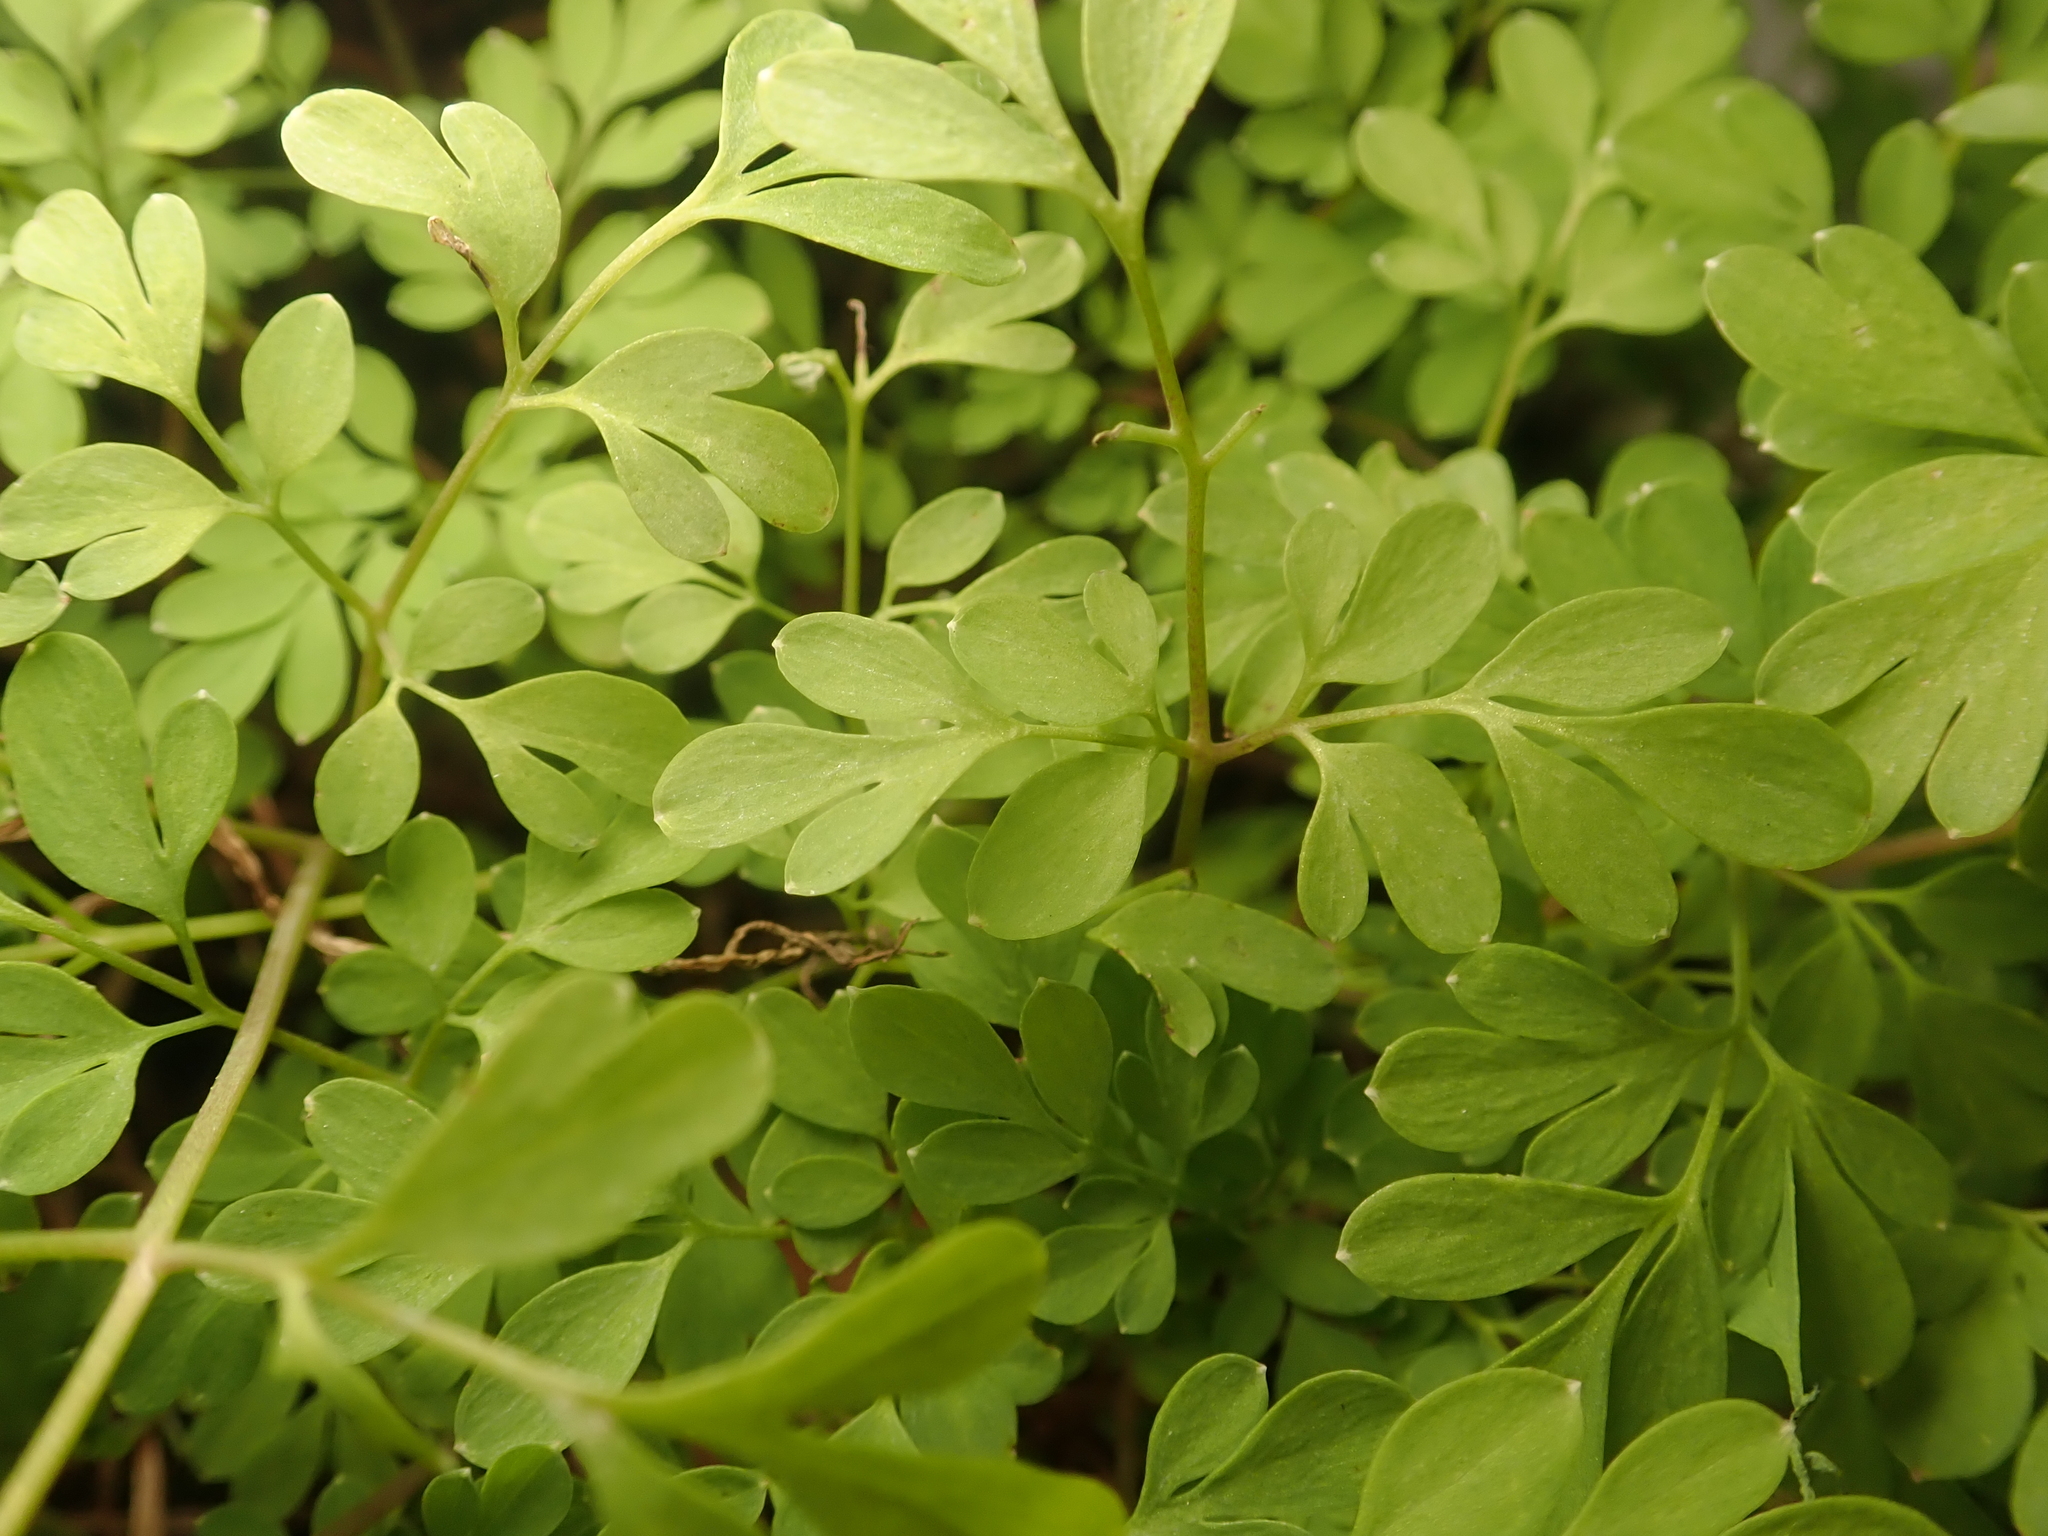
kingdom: Plantae
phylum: Tracheophyta
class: Magnoliopsida
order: Ranunculales
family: Papaveraceae
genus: Pseudofumaria
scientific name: Pseudofumaria lutea
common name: Yellow corydalis
